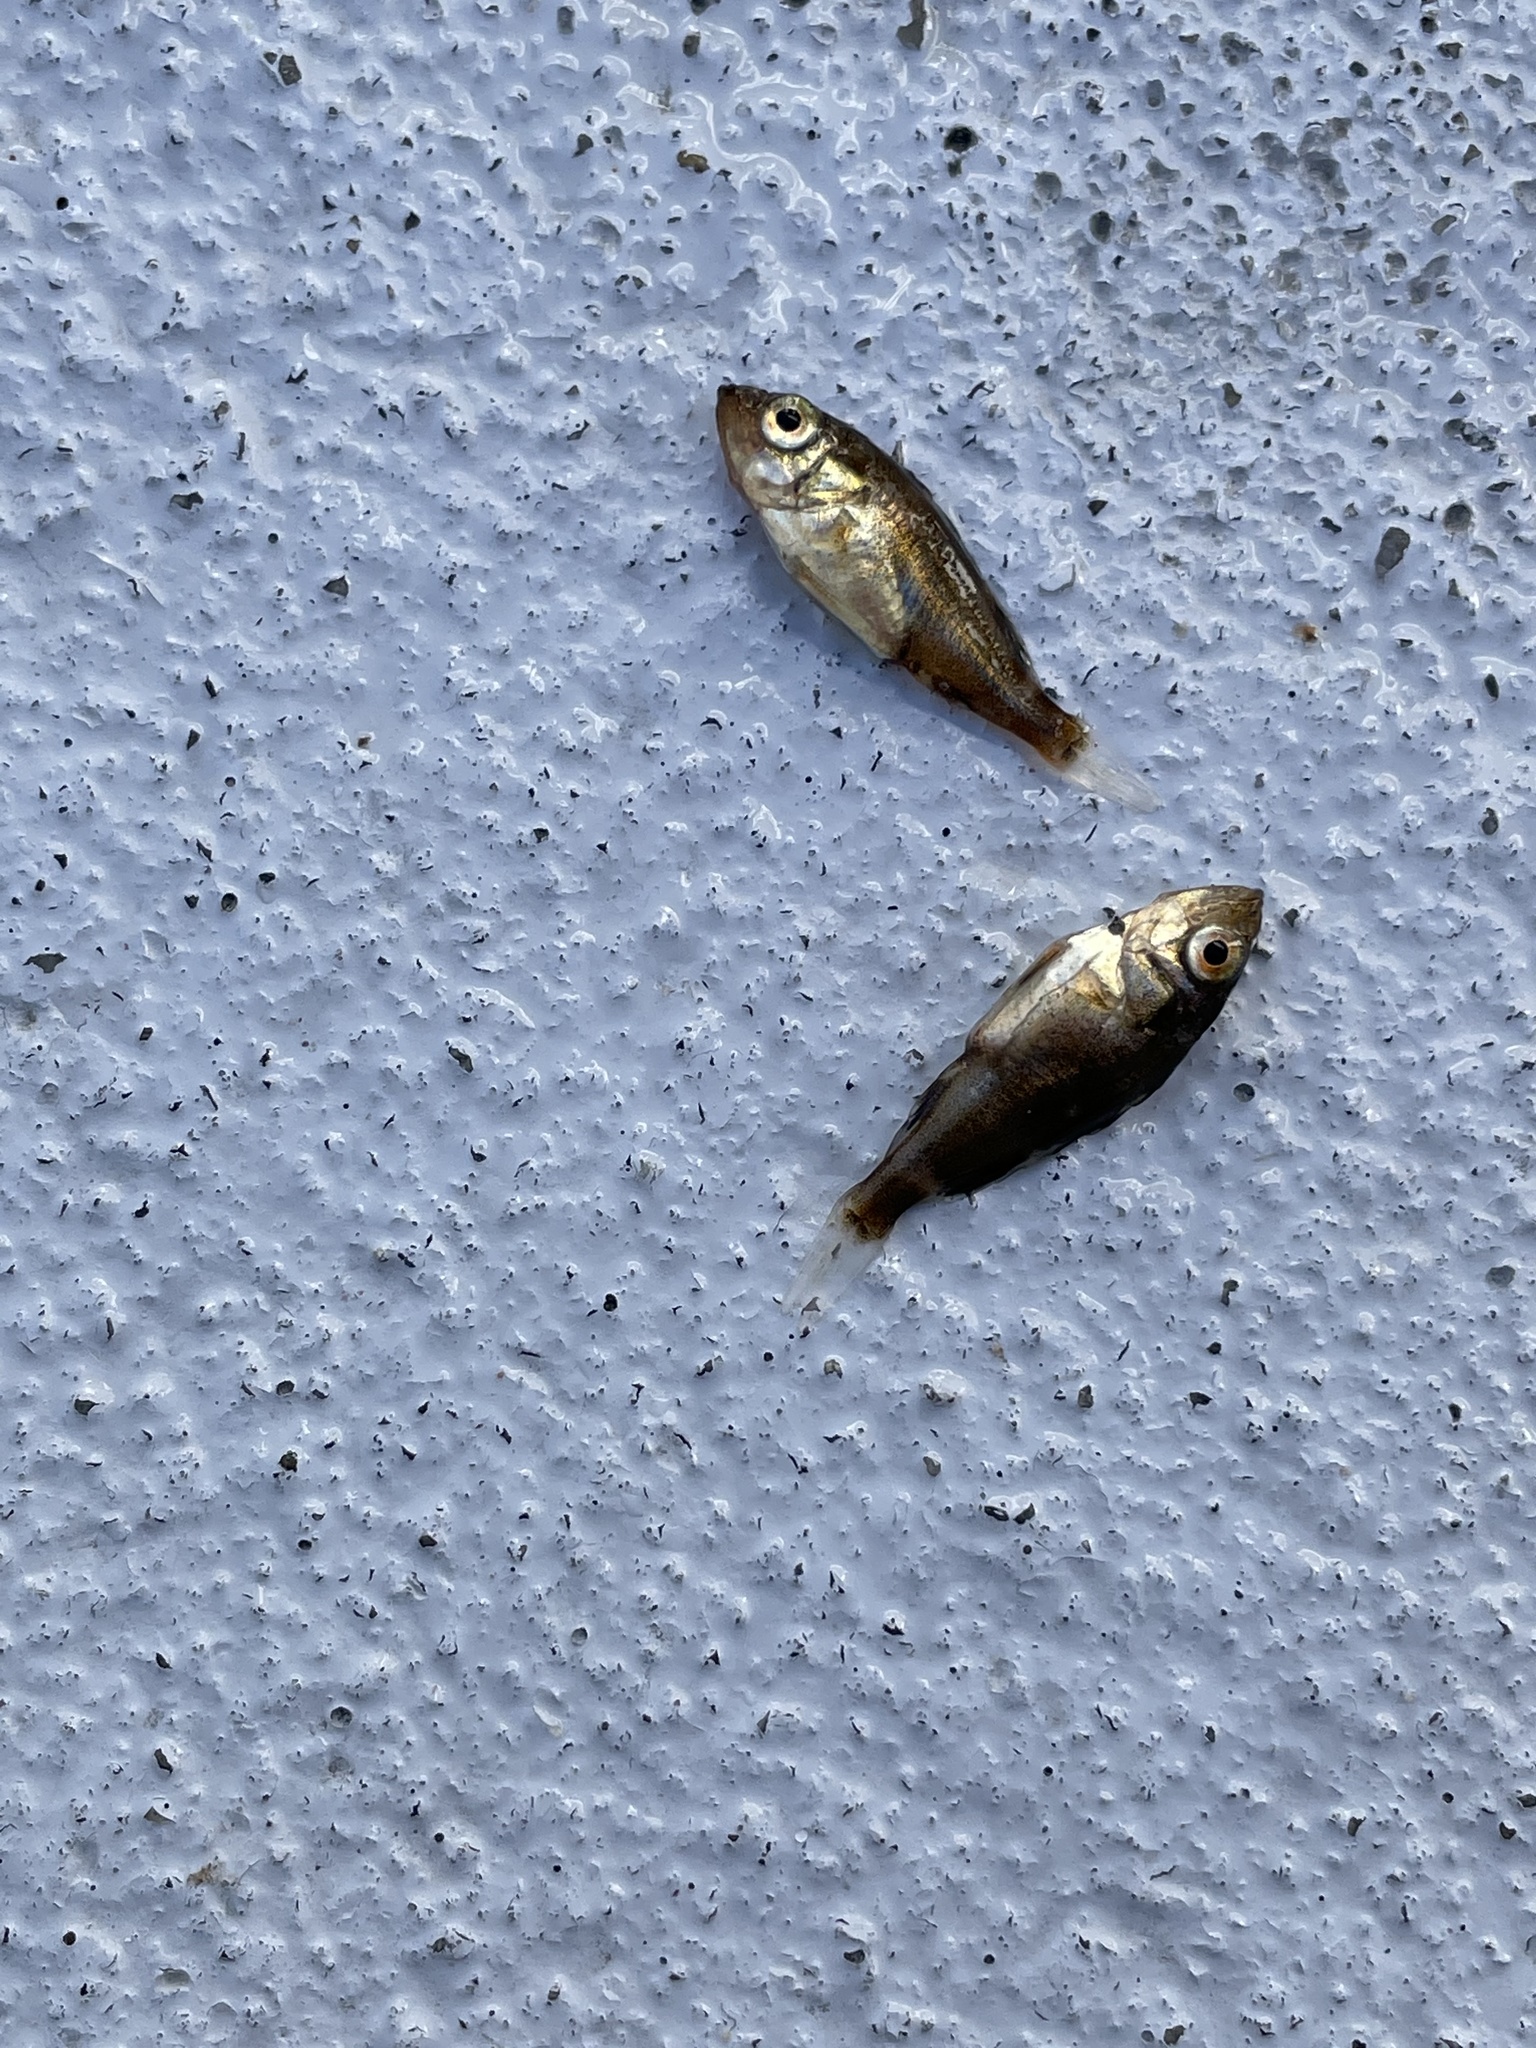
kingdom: Animalia
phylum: Chordata
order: Scorpaeniformes
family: Sebastidae
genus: Sebastes
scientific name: Sebastes semicinctus
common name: Halfbanded rockfish
